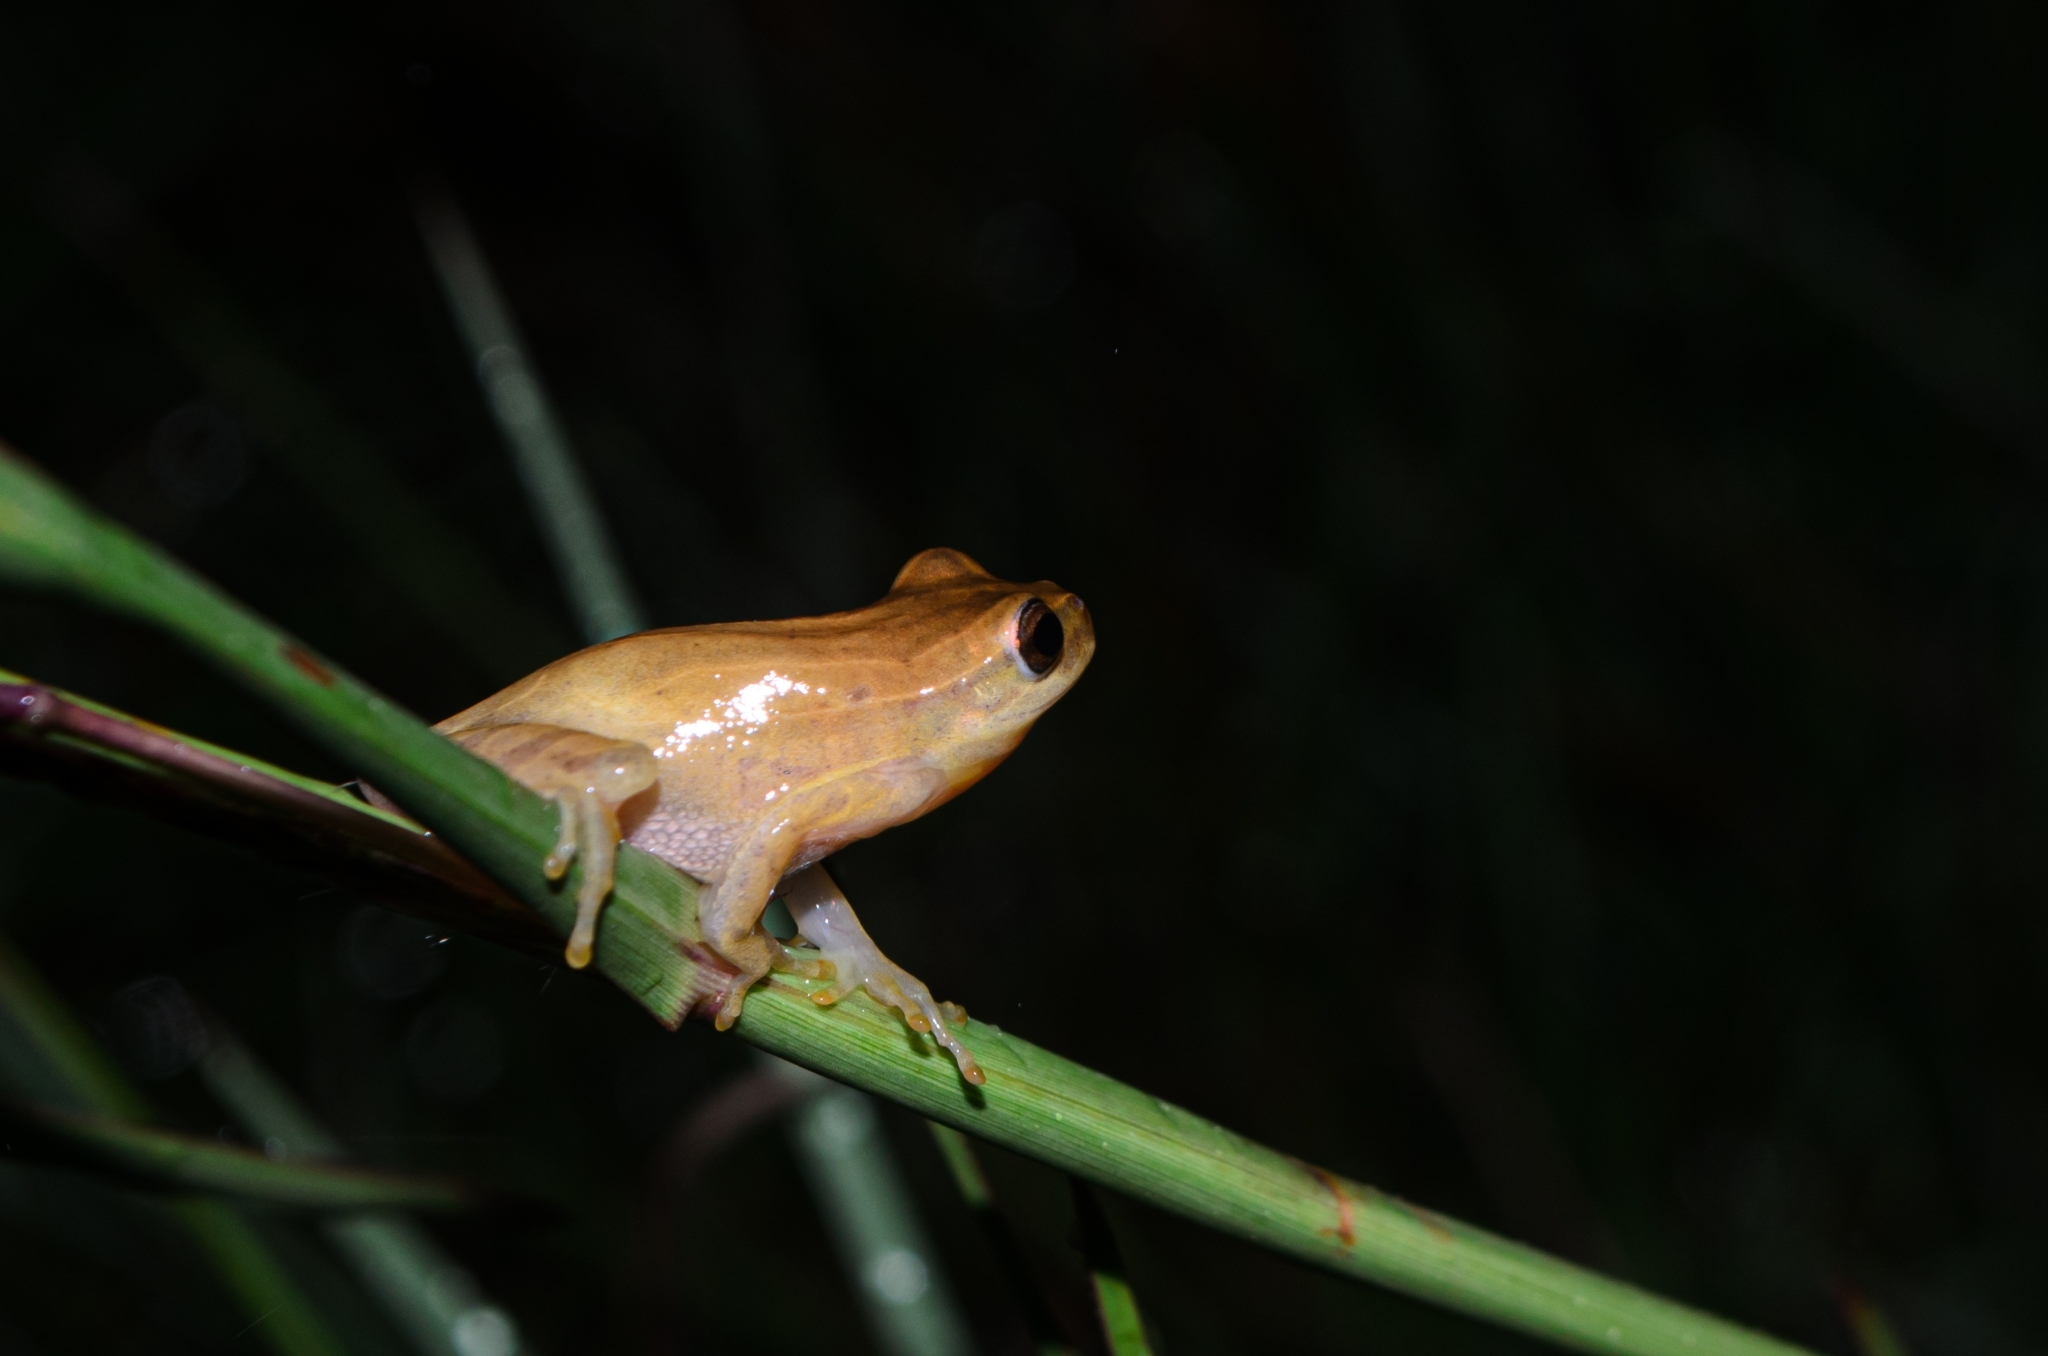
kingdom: Animalia
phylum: Chordata
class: Amphibia
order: Anura
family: Hylidae
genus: Dendropsophus
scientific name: Dendropsophus minutus
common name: Lesser treefrog
